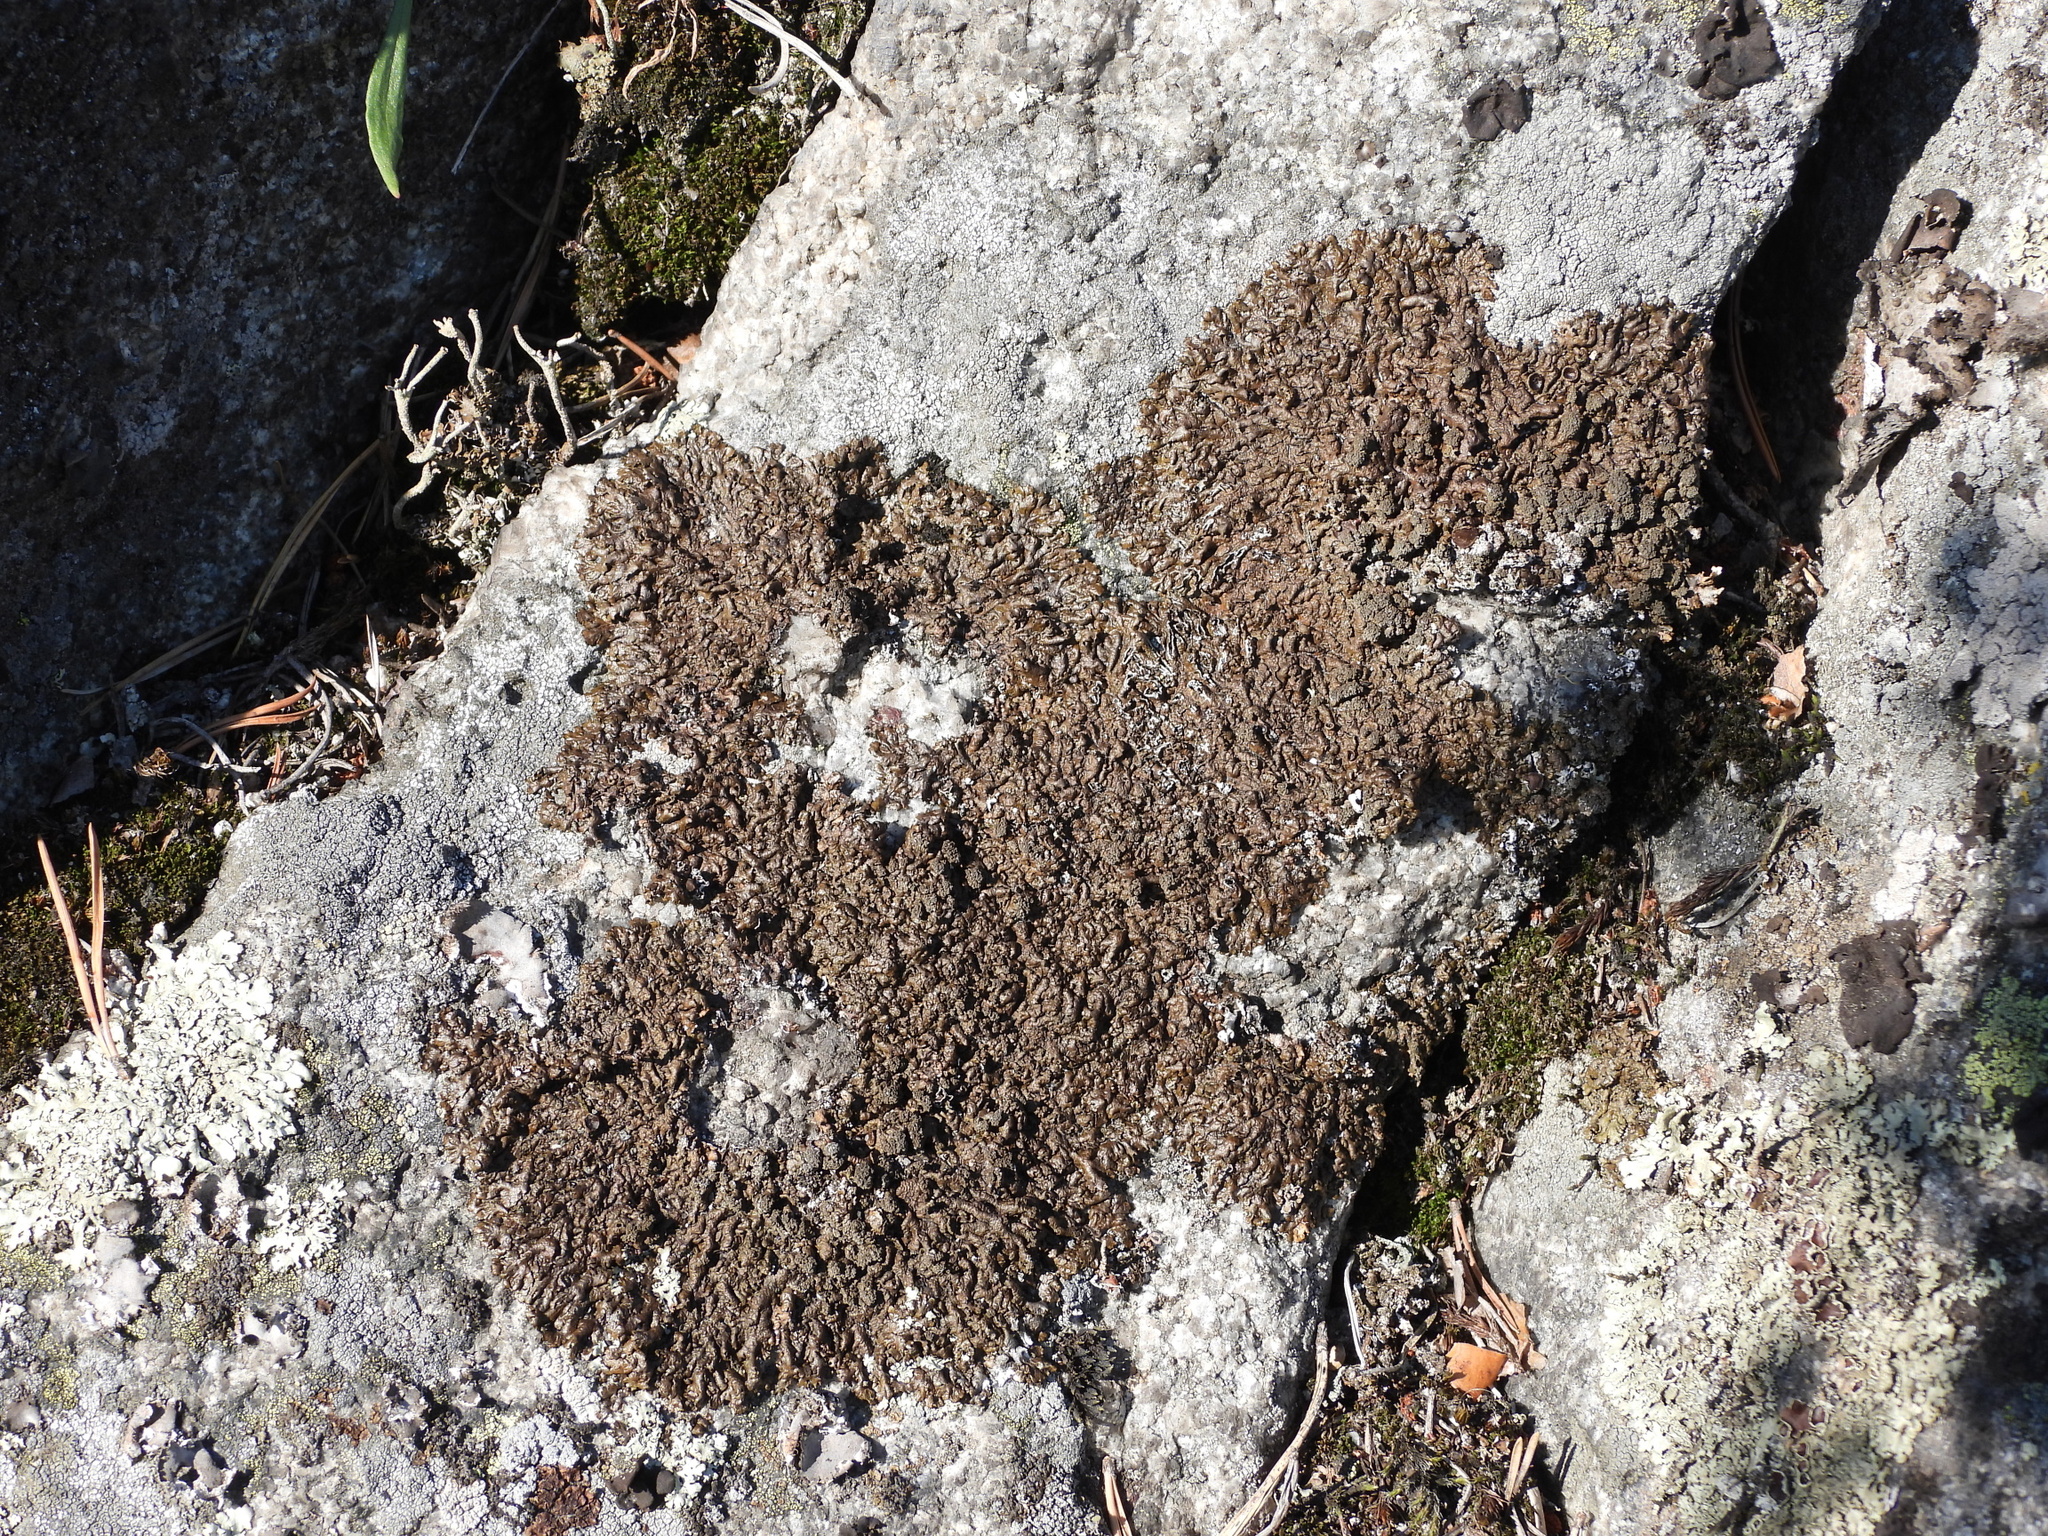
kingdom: Fungi
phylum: Ascomycota
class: Lecanoromycetes
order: Lecanorales
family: Parmeliaceae
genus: Xanthoparmelia
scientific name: Xanthoparmelia loxodes
